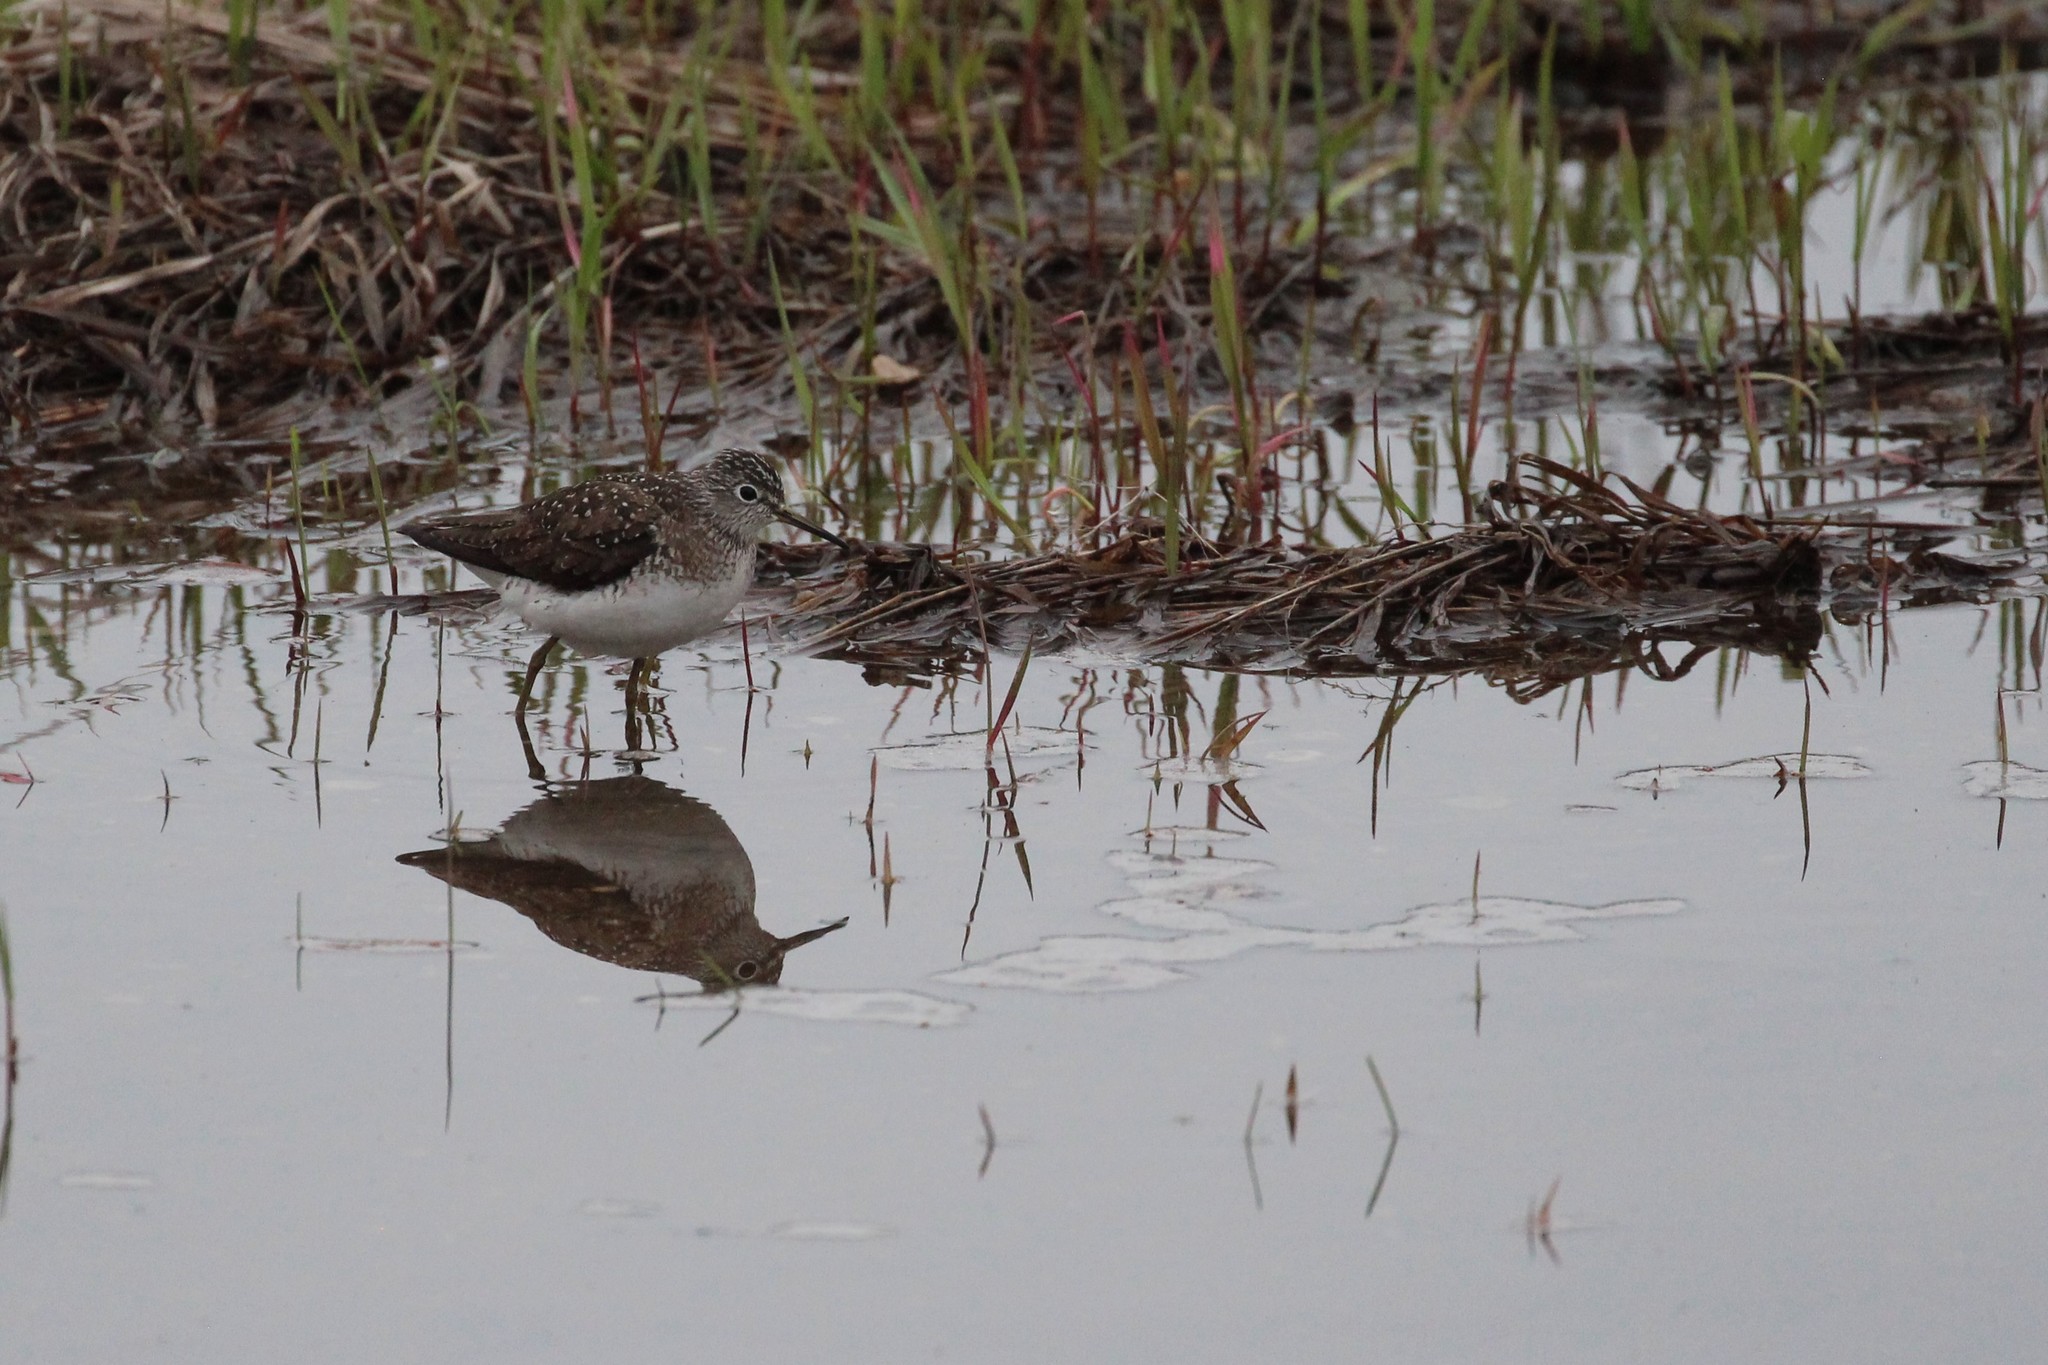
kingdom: Animalia
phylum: Chordata
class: Aves
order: Charadriiformes
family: Scolopacidae
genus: Tringa
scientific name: Tringa solitaria
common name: Solitary sandpiper
